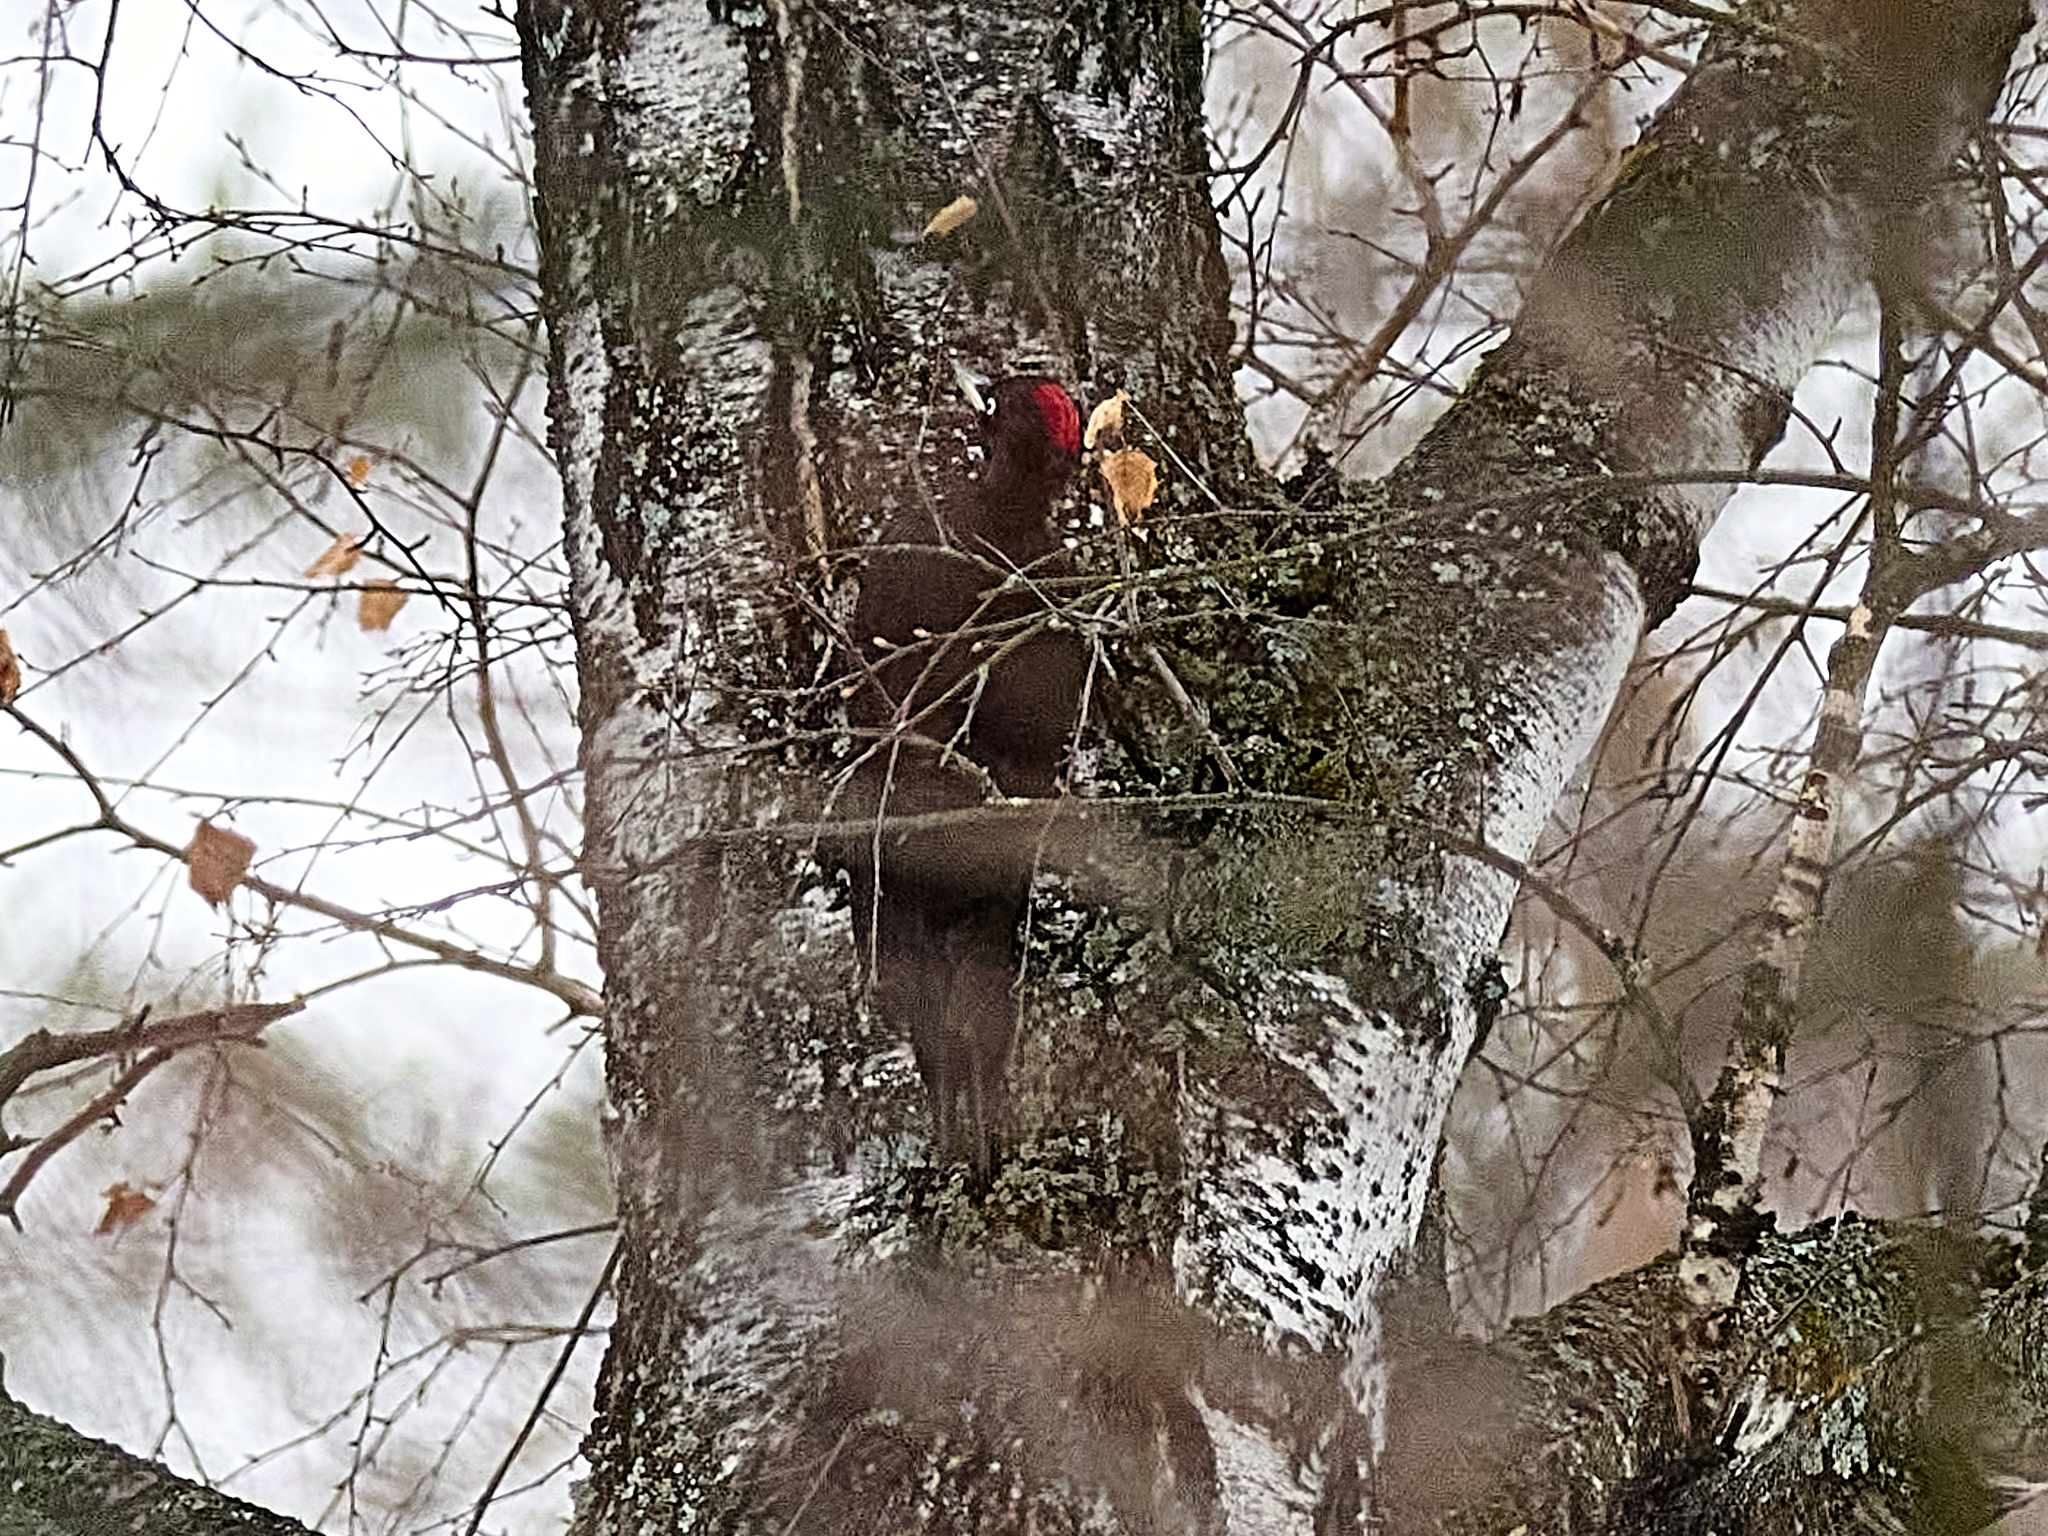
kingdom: Animalia
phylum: Chordata
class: Aves
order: Piciformes
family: Picidae
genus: Dryocopus
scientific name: Dryocopus martius
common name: Black woodpecker
